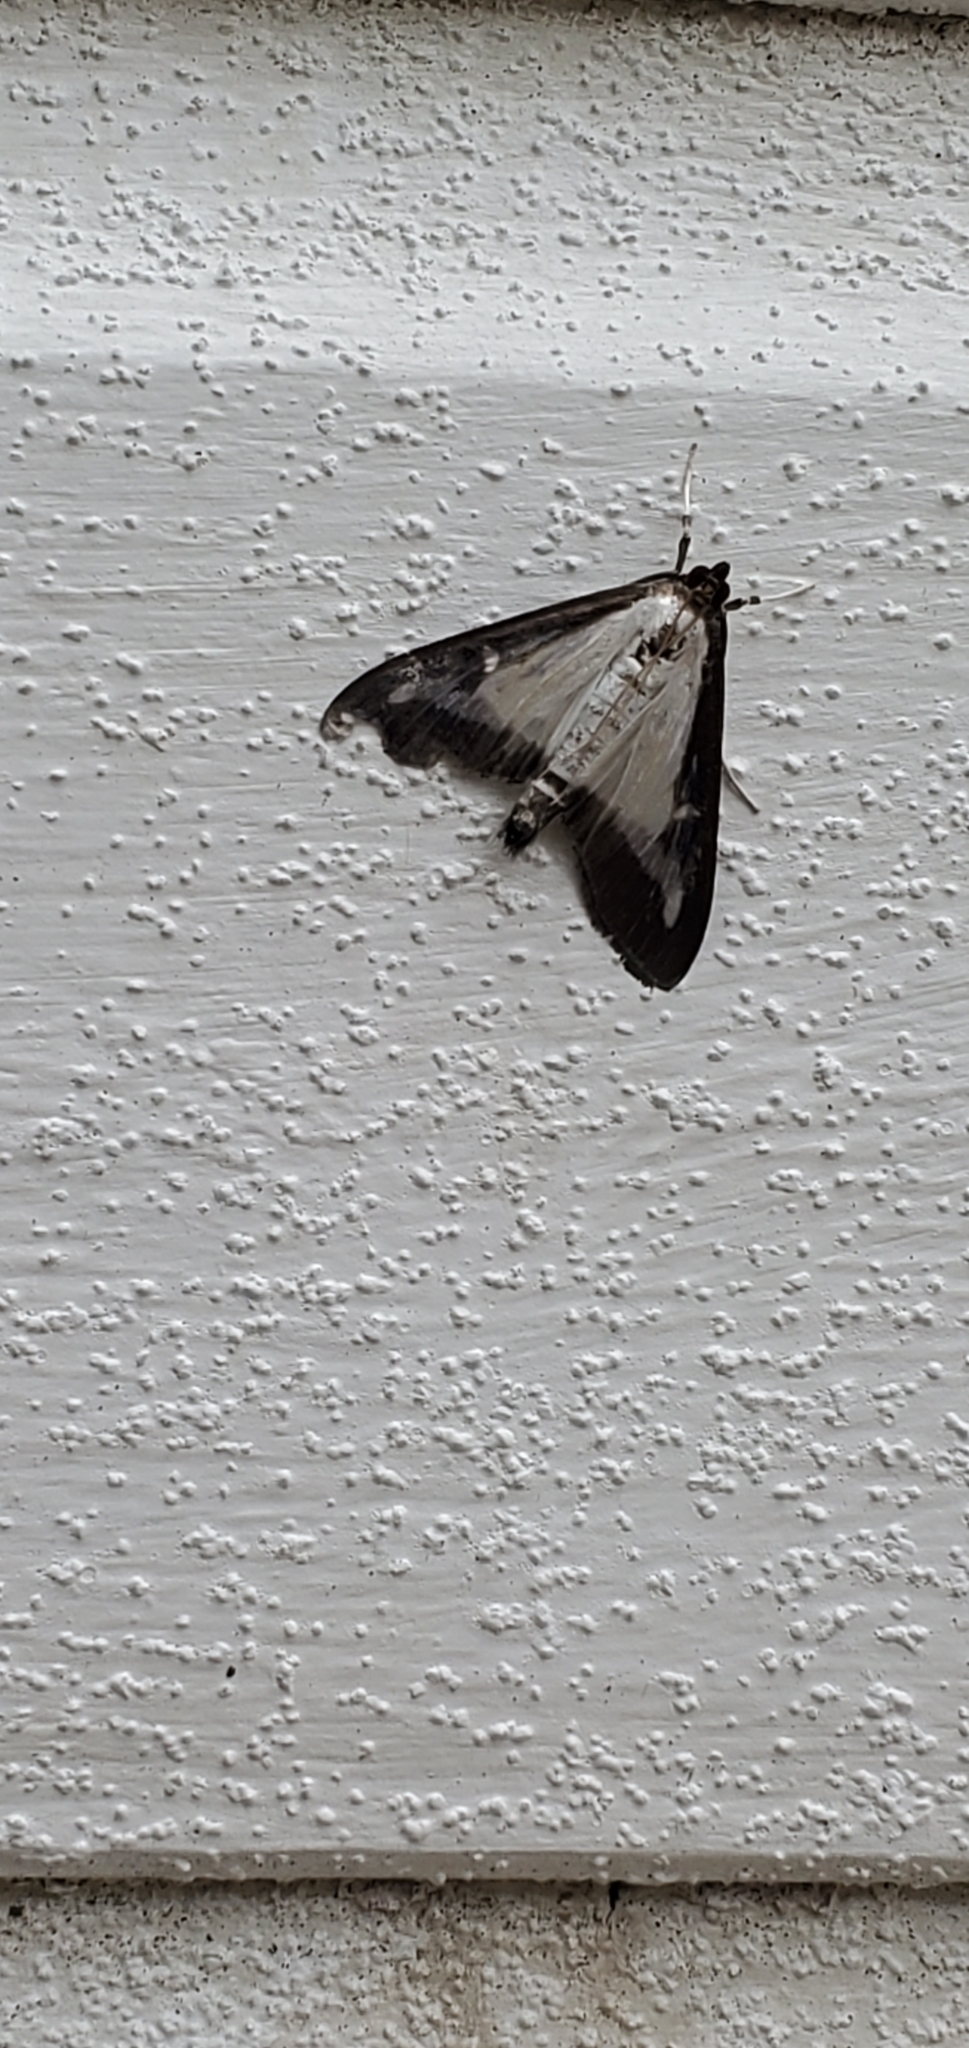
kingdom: Animalia
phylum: Arthropoda
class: Insecta
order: Lepidoptera
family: Crambidae
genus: Cydalima
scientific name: Cydalima perspectalis
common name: Box tree moth
